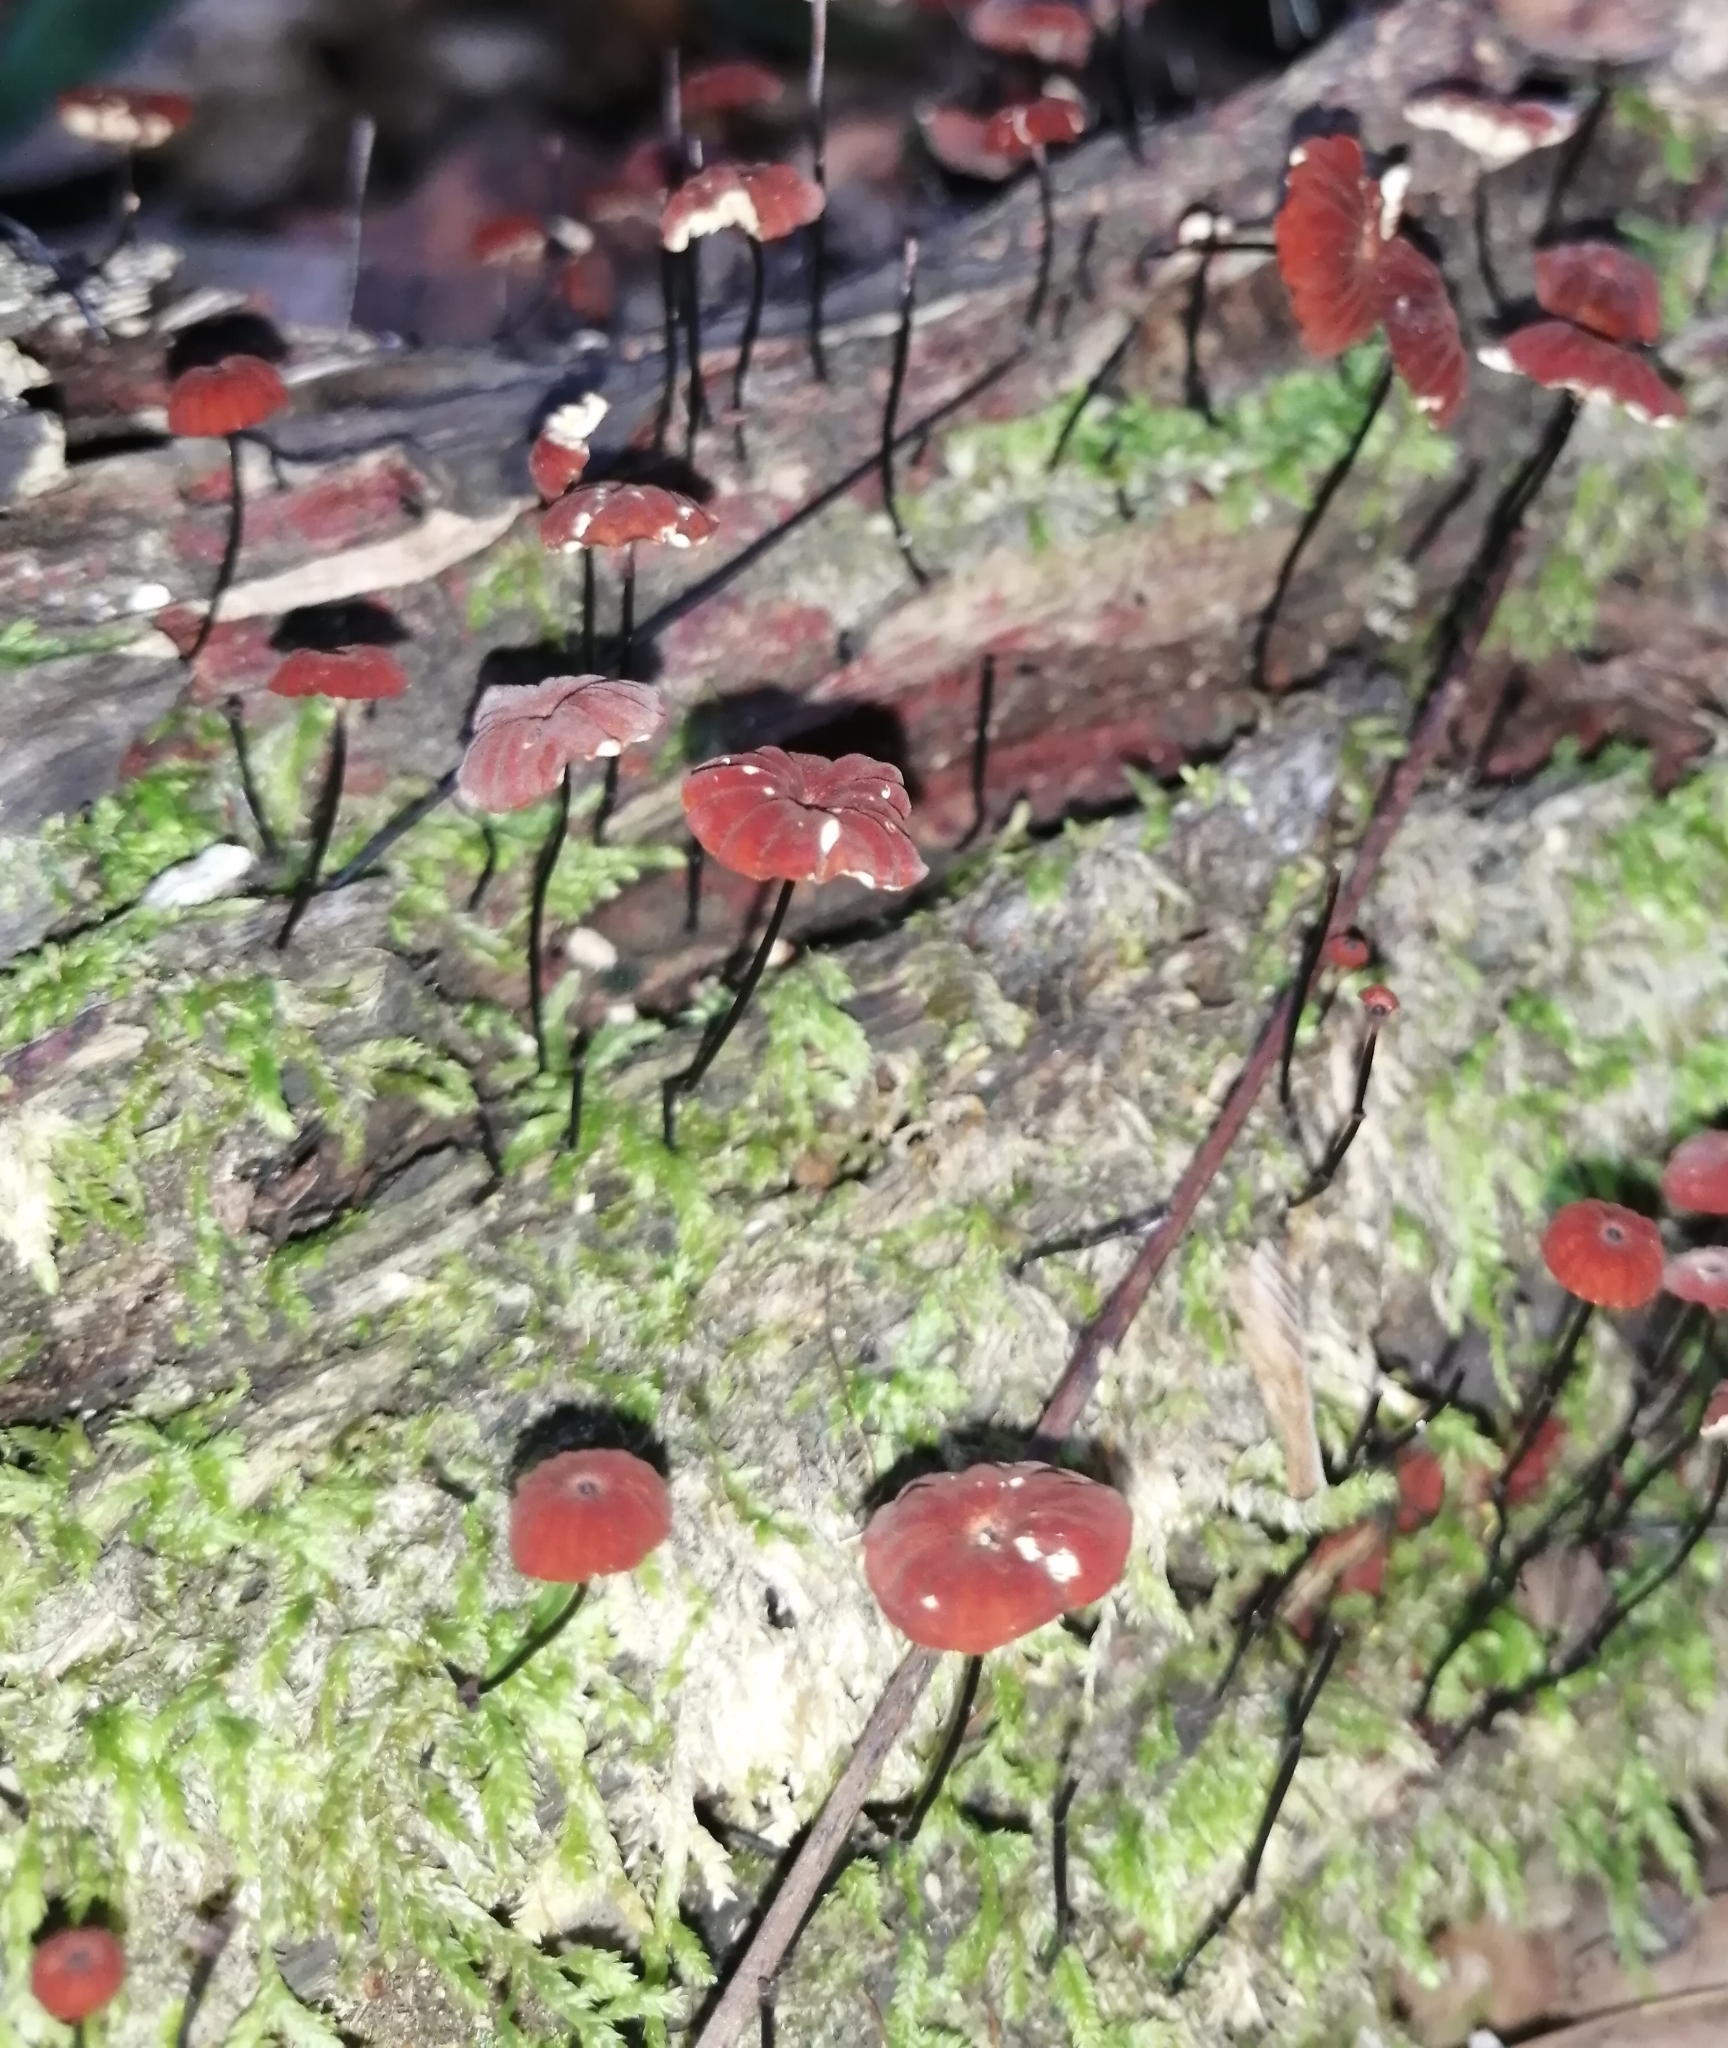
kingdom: Fungi
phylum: Basidiomycota
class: Agaricomycetes
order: Agaricales
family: Marasmiaceae
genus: Marasmius
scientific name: Marasmius rotula
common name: Collared parachute
